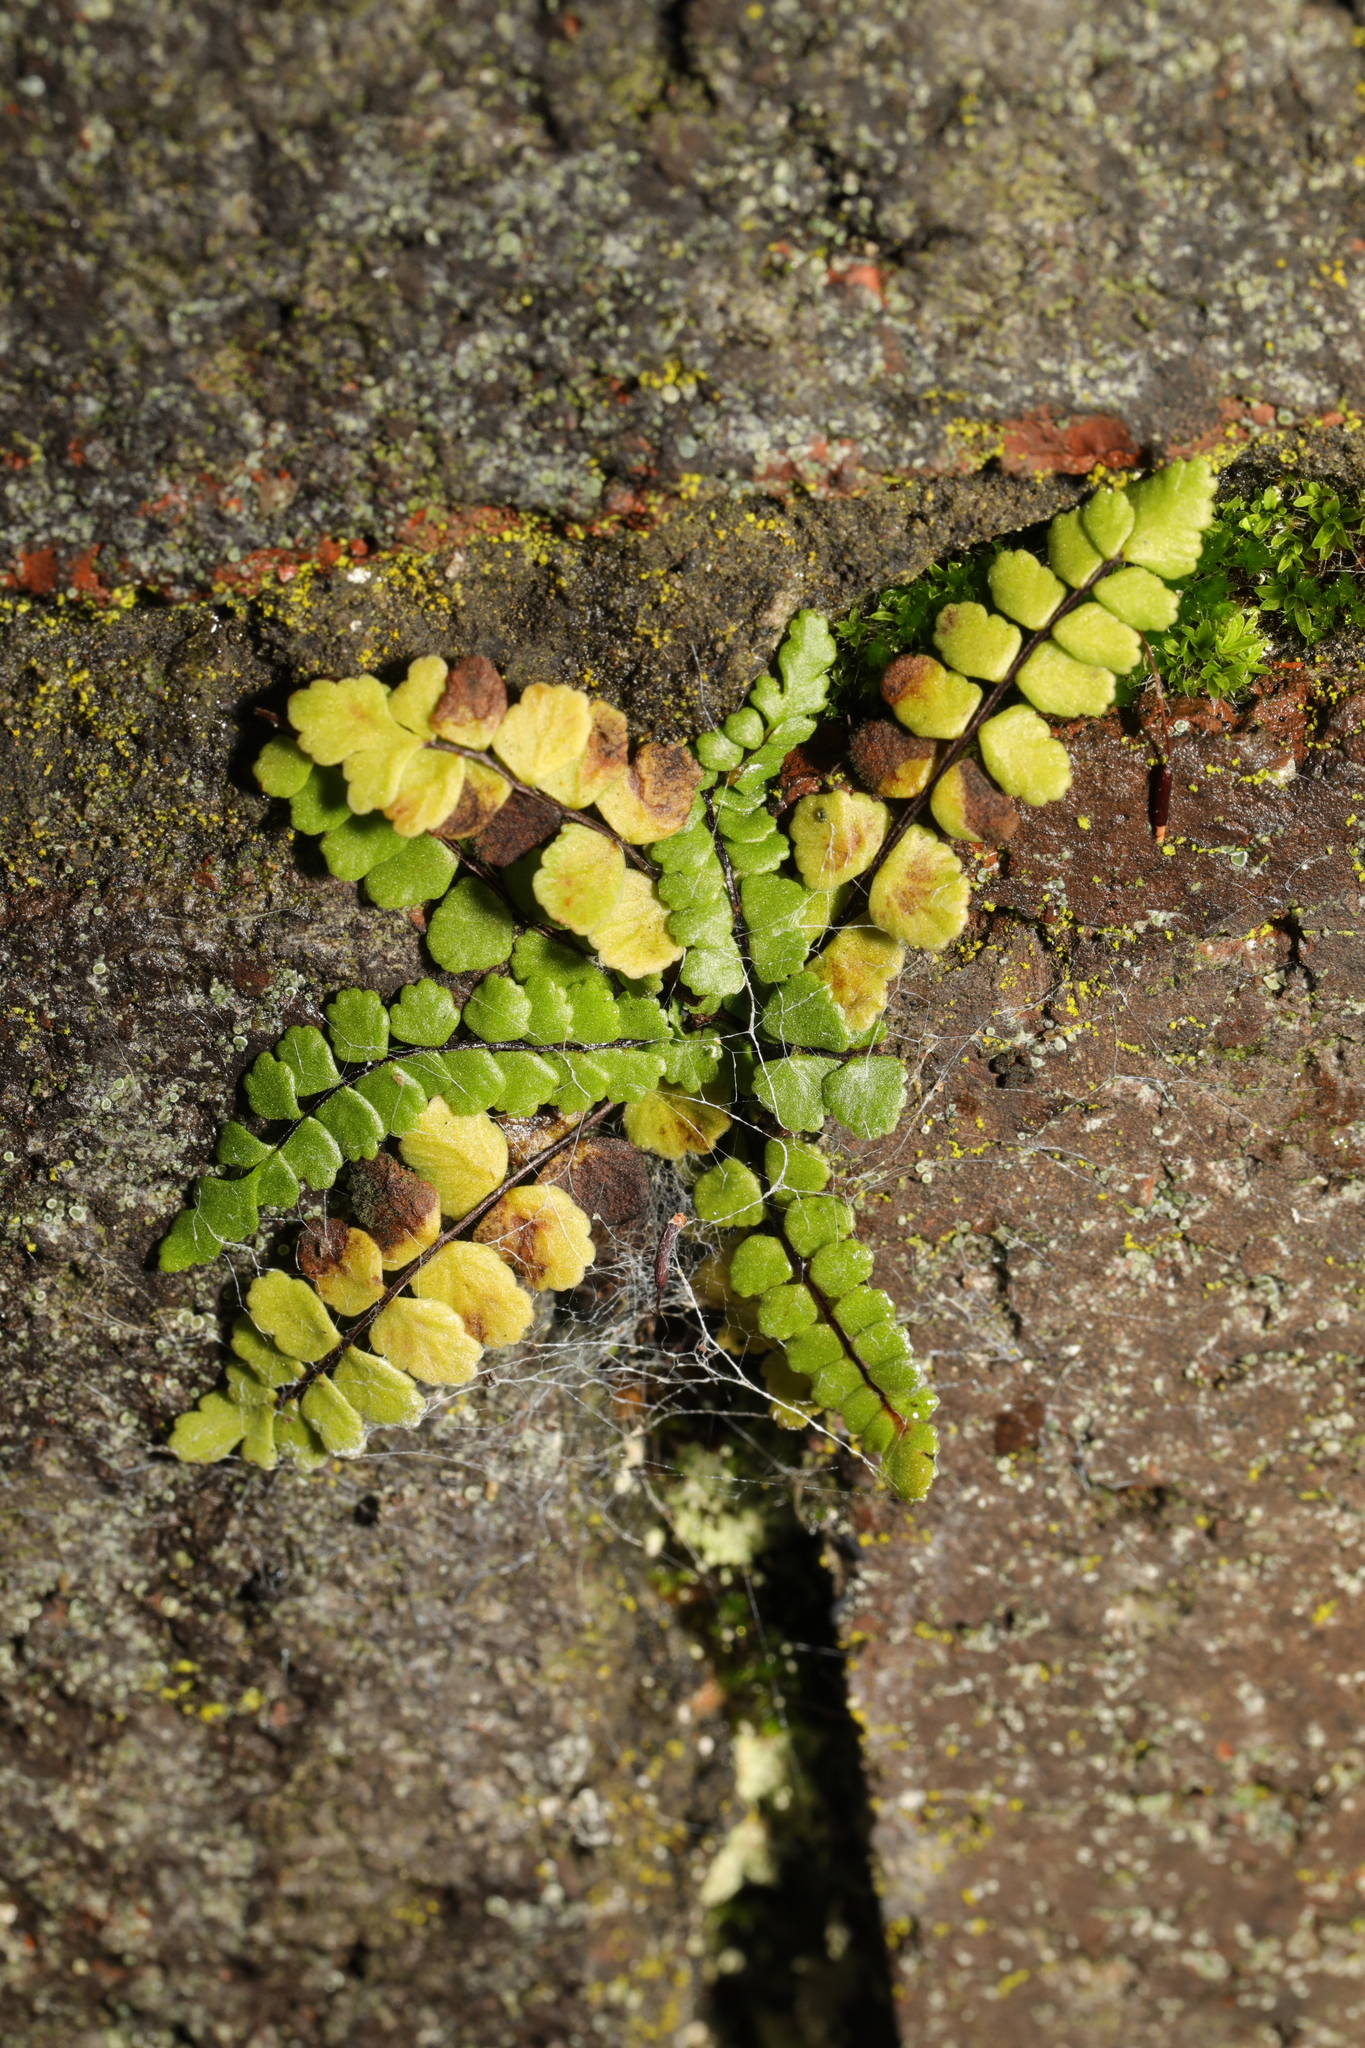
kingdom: Plantae
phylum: Tracheophyta
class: Polypodiopsida
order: Polypodiales
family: Aspleniaceae
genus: Asplenium
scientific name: Asplenium trichomanes
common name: Maidenhair spleenwort
